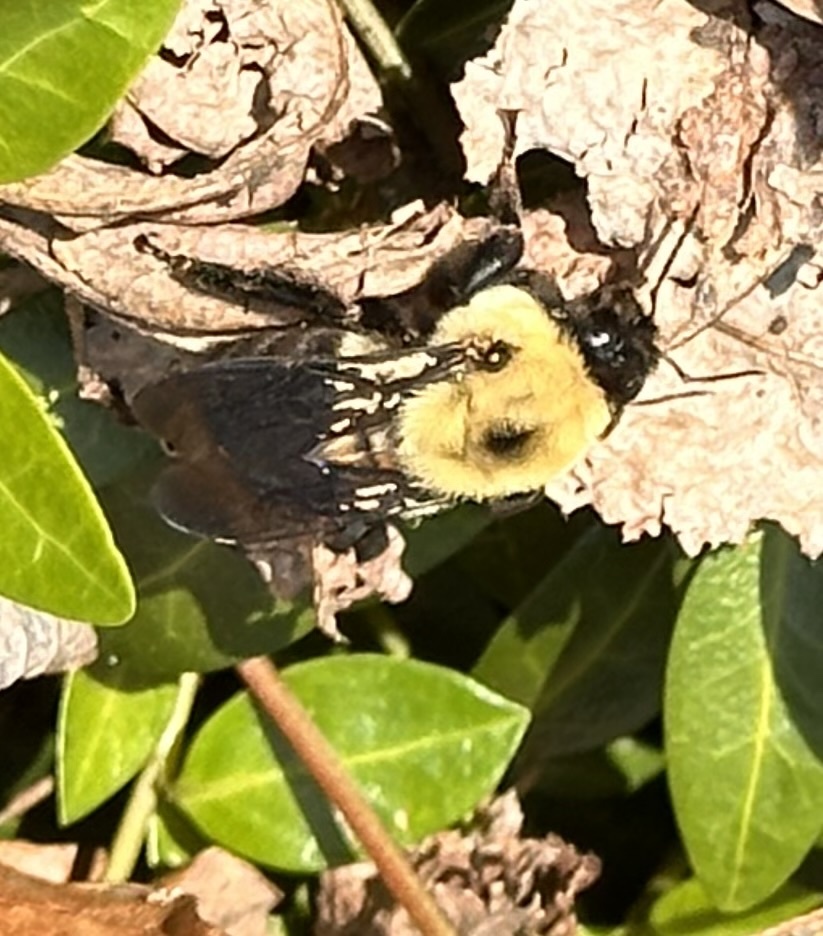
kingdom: Animalia
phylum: Arthropoda
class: Insecta
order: Hymenoptera
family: Apidae
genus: Bombus
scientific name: Bombus griseocollis
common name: Brown-belted bumble bee
